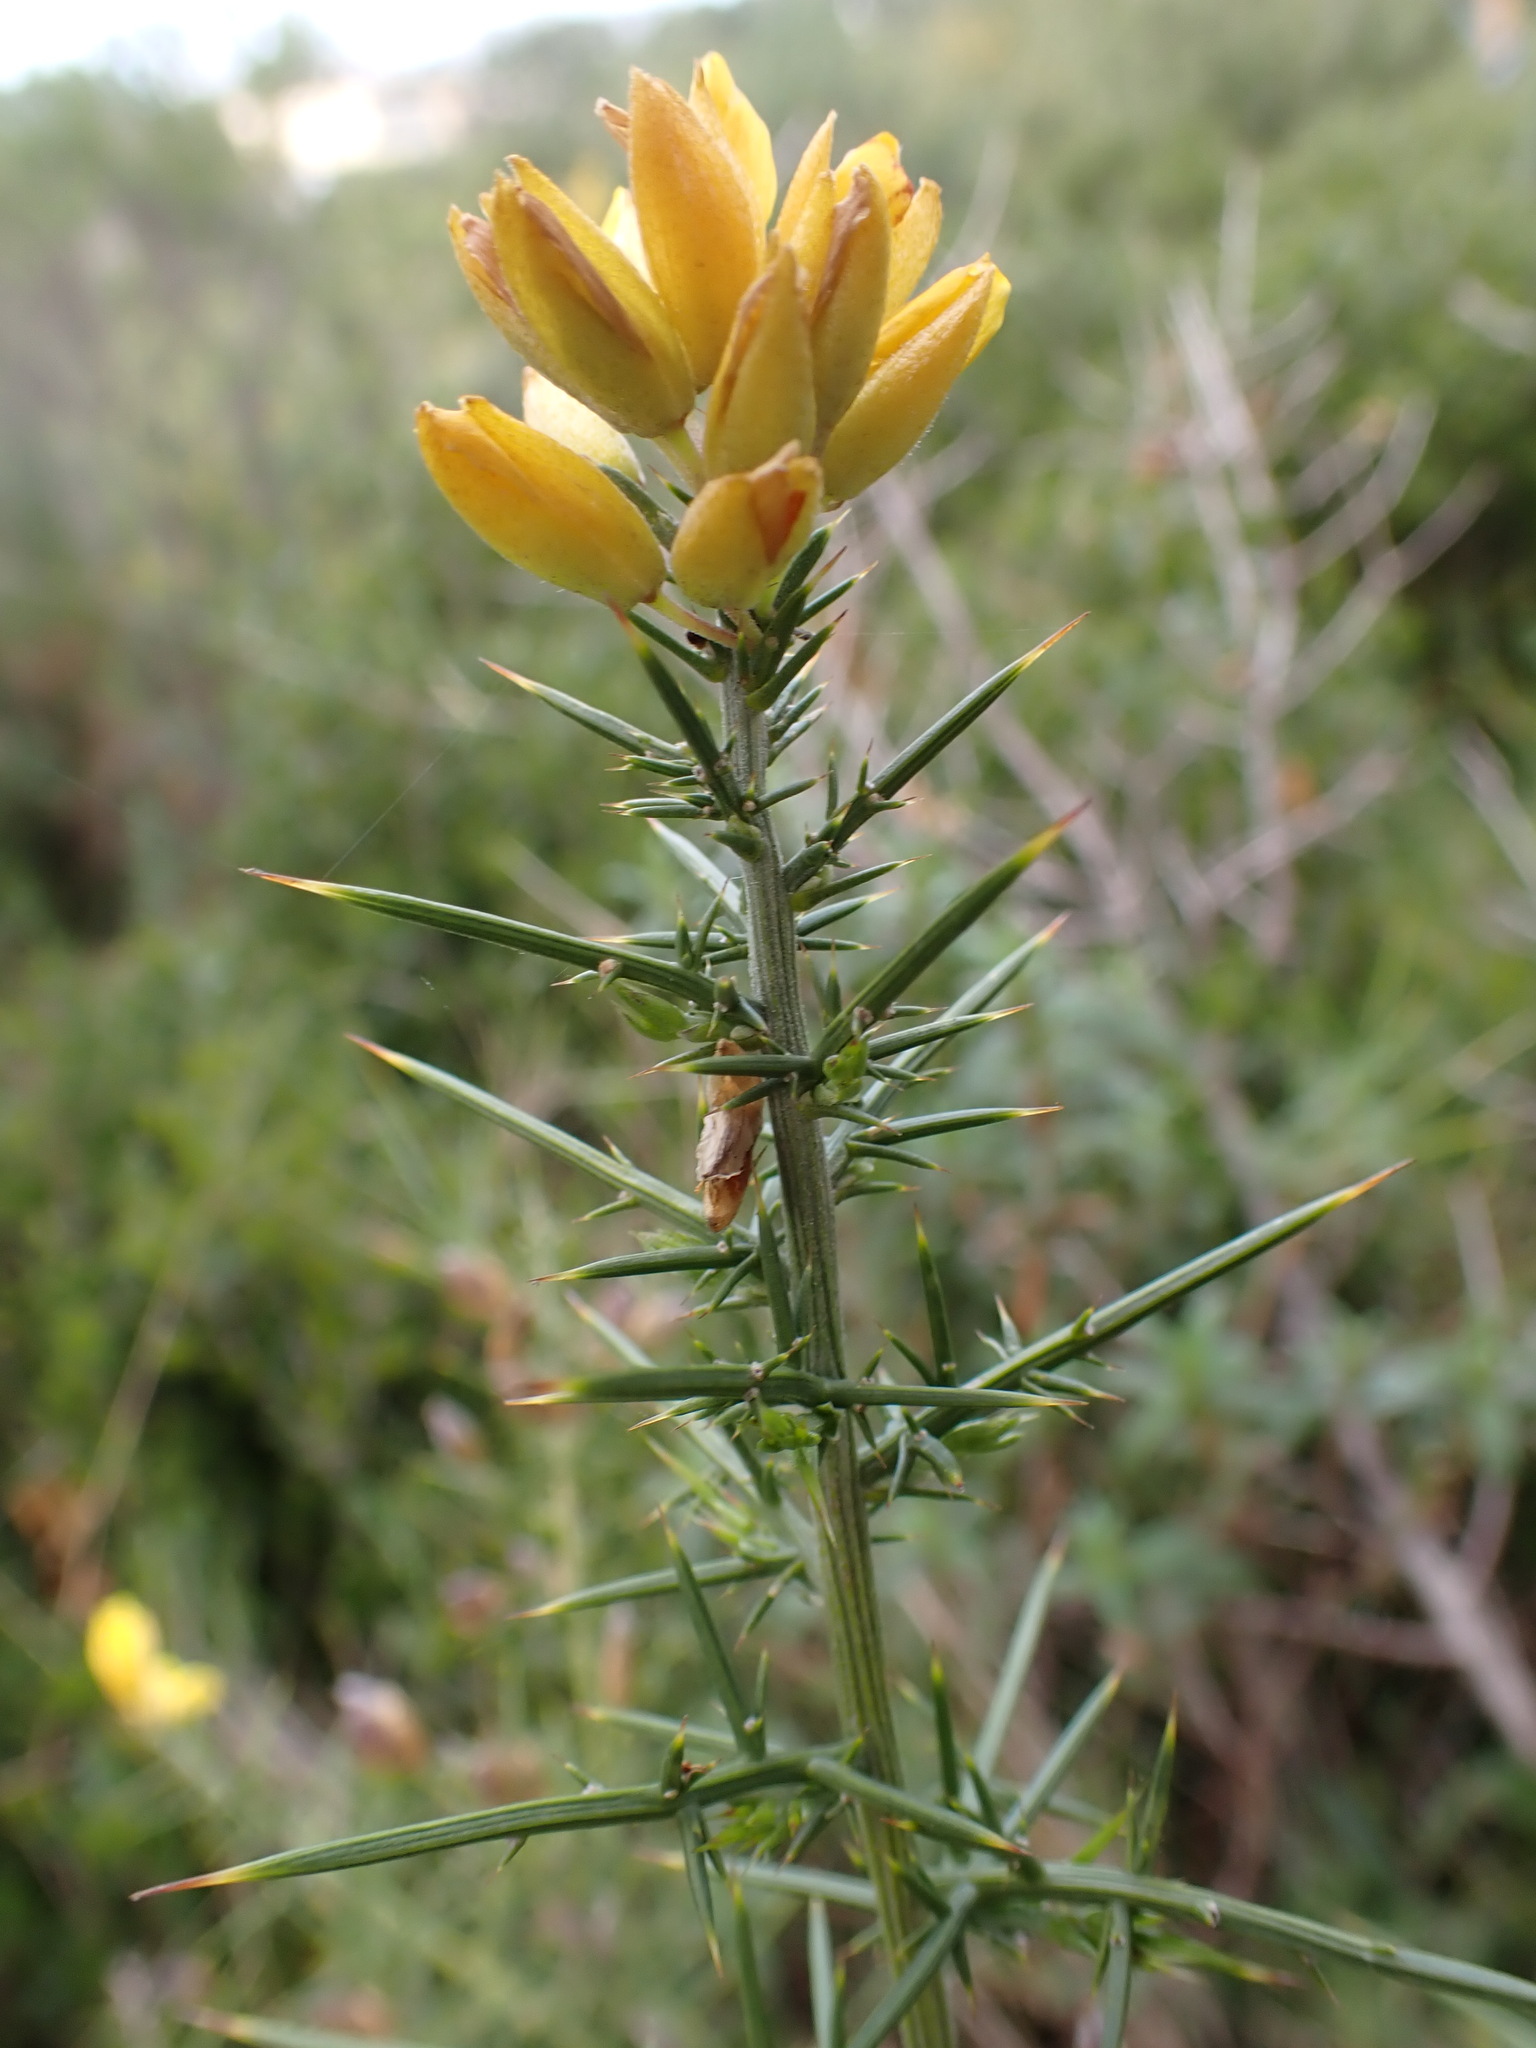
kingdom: Plantae
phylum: Tracheophyta
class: Magnoliopsida
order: Fabales
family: Fabaceae
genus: Ulex
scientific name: Ulex parviflorus
